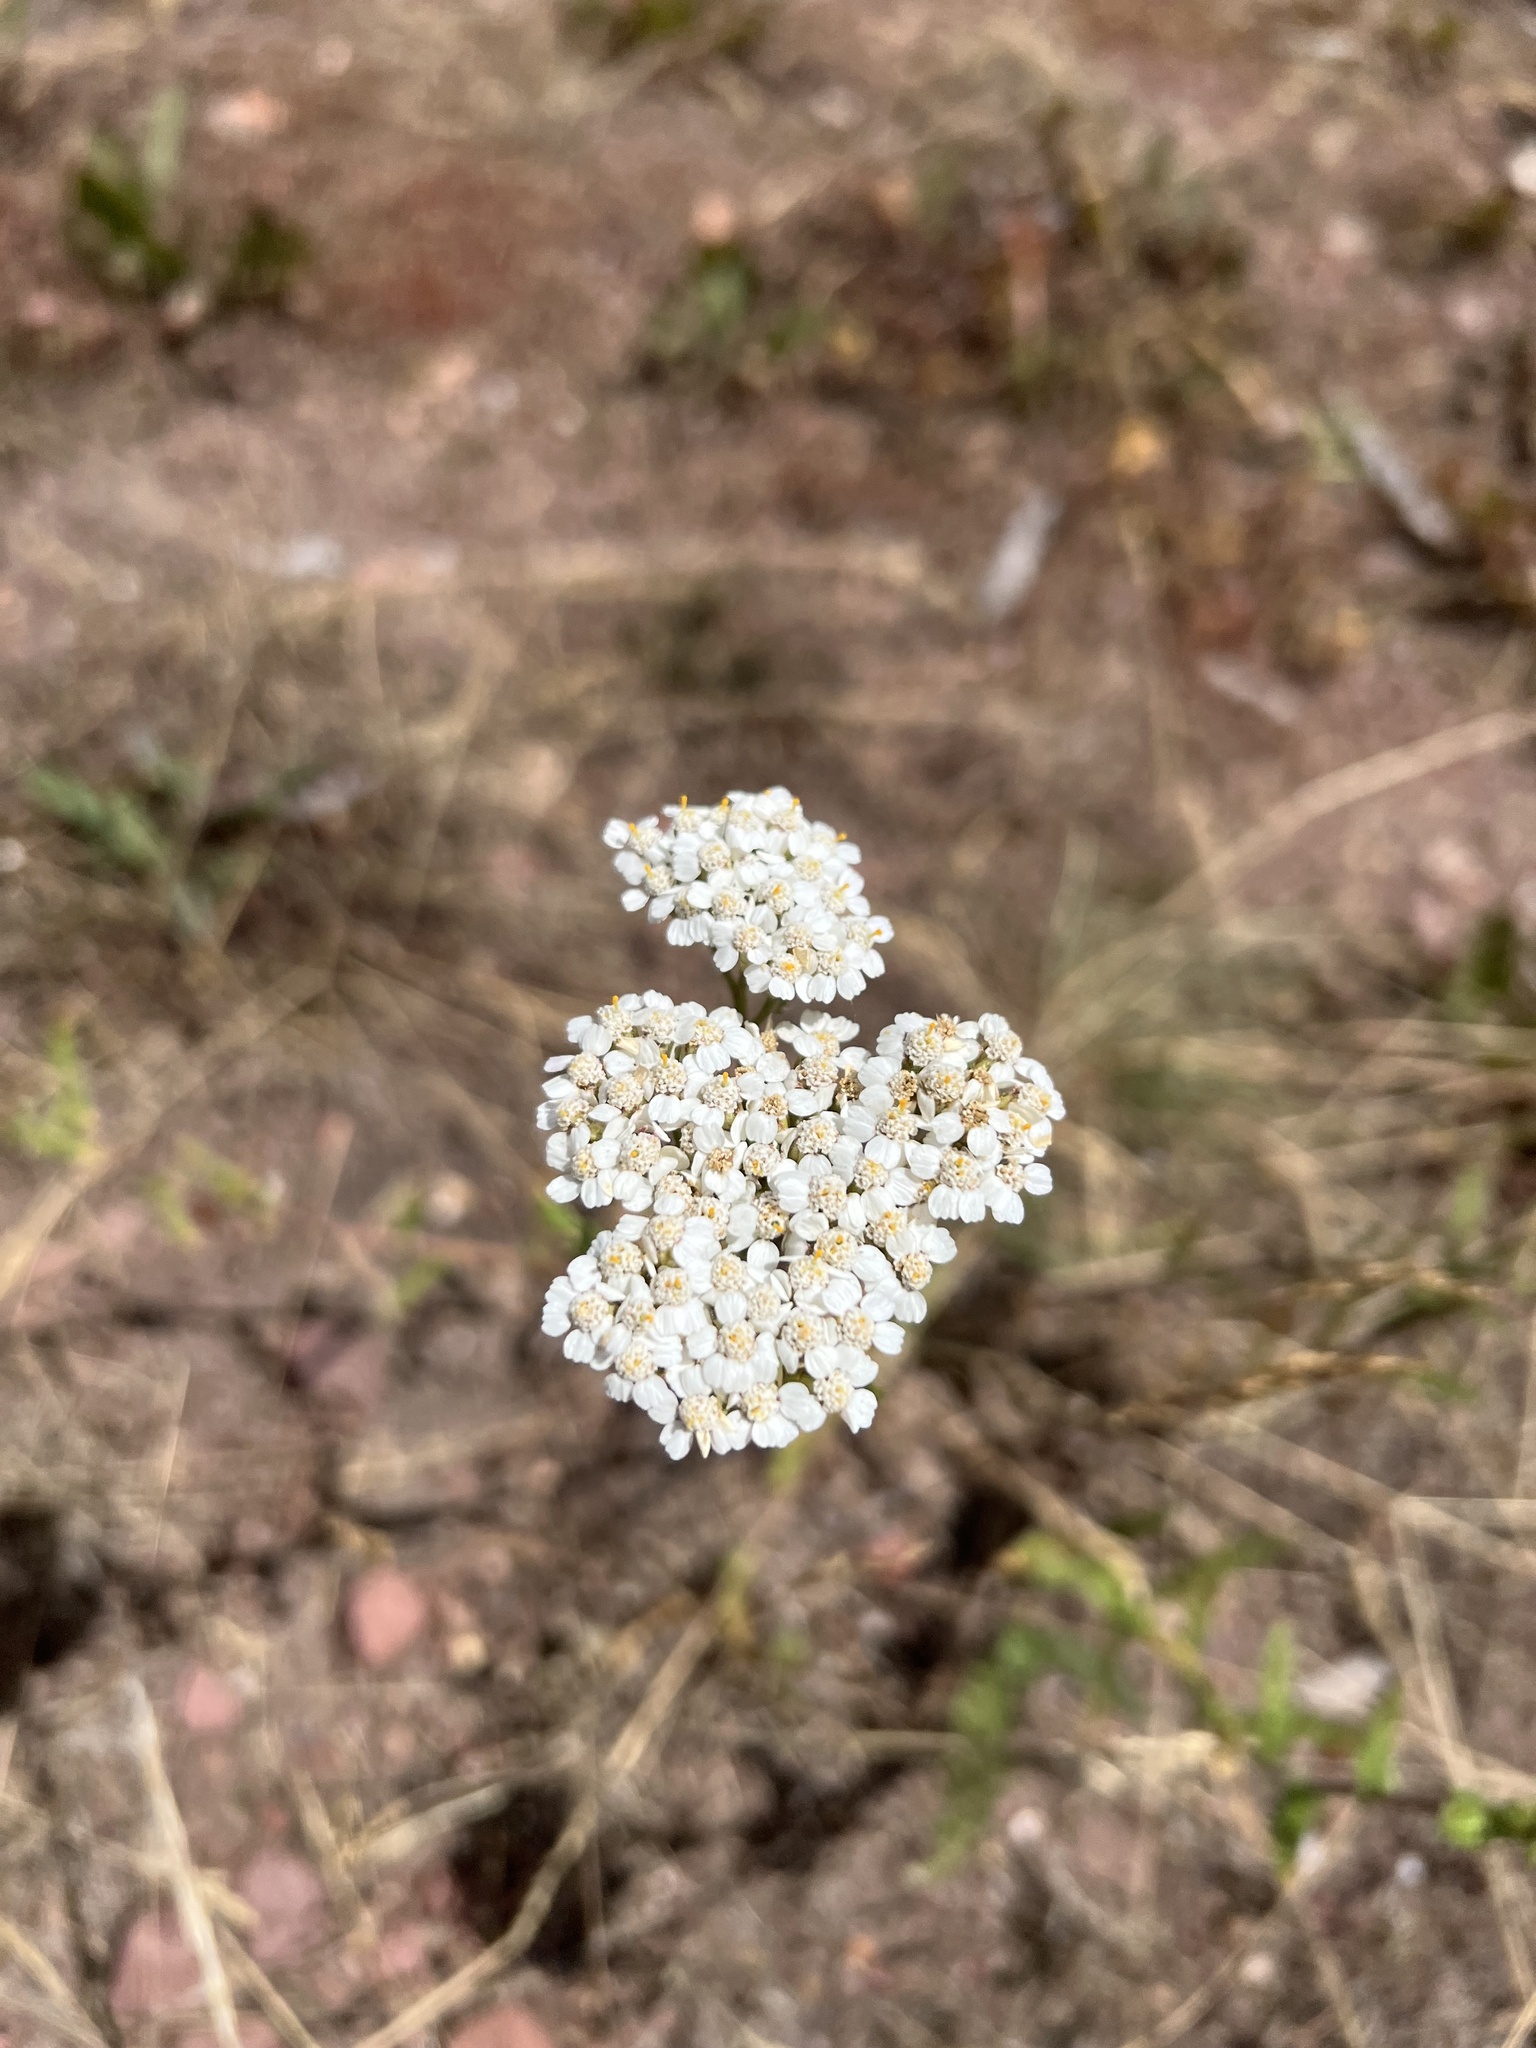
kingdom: Plantae
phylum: Tracheophyta
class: Magnoliopsida
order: Asterales
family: Asteraceae
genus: Achillea
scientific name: Achillea millefolium
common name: Yarrow
